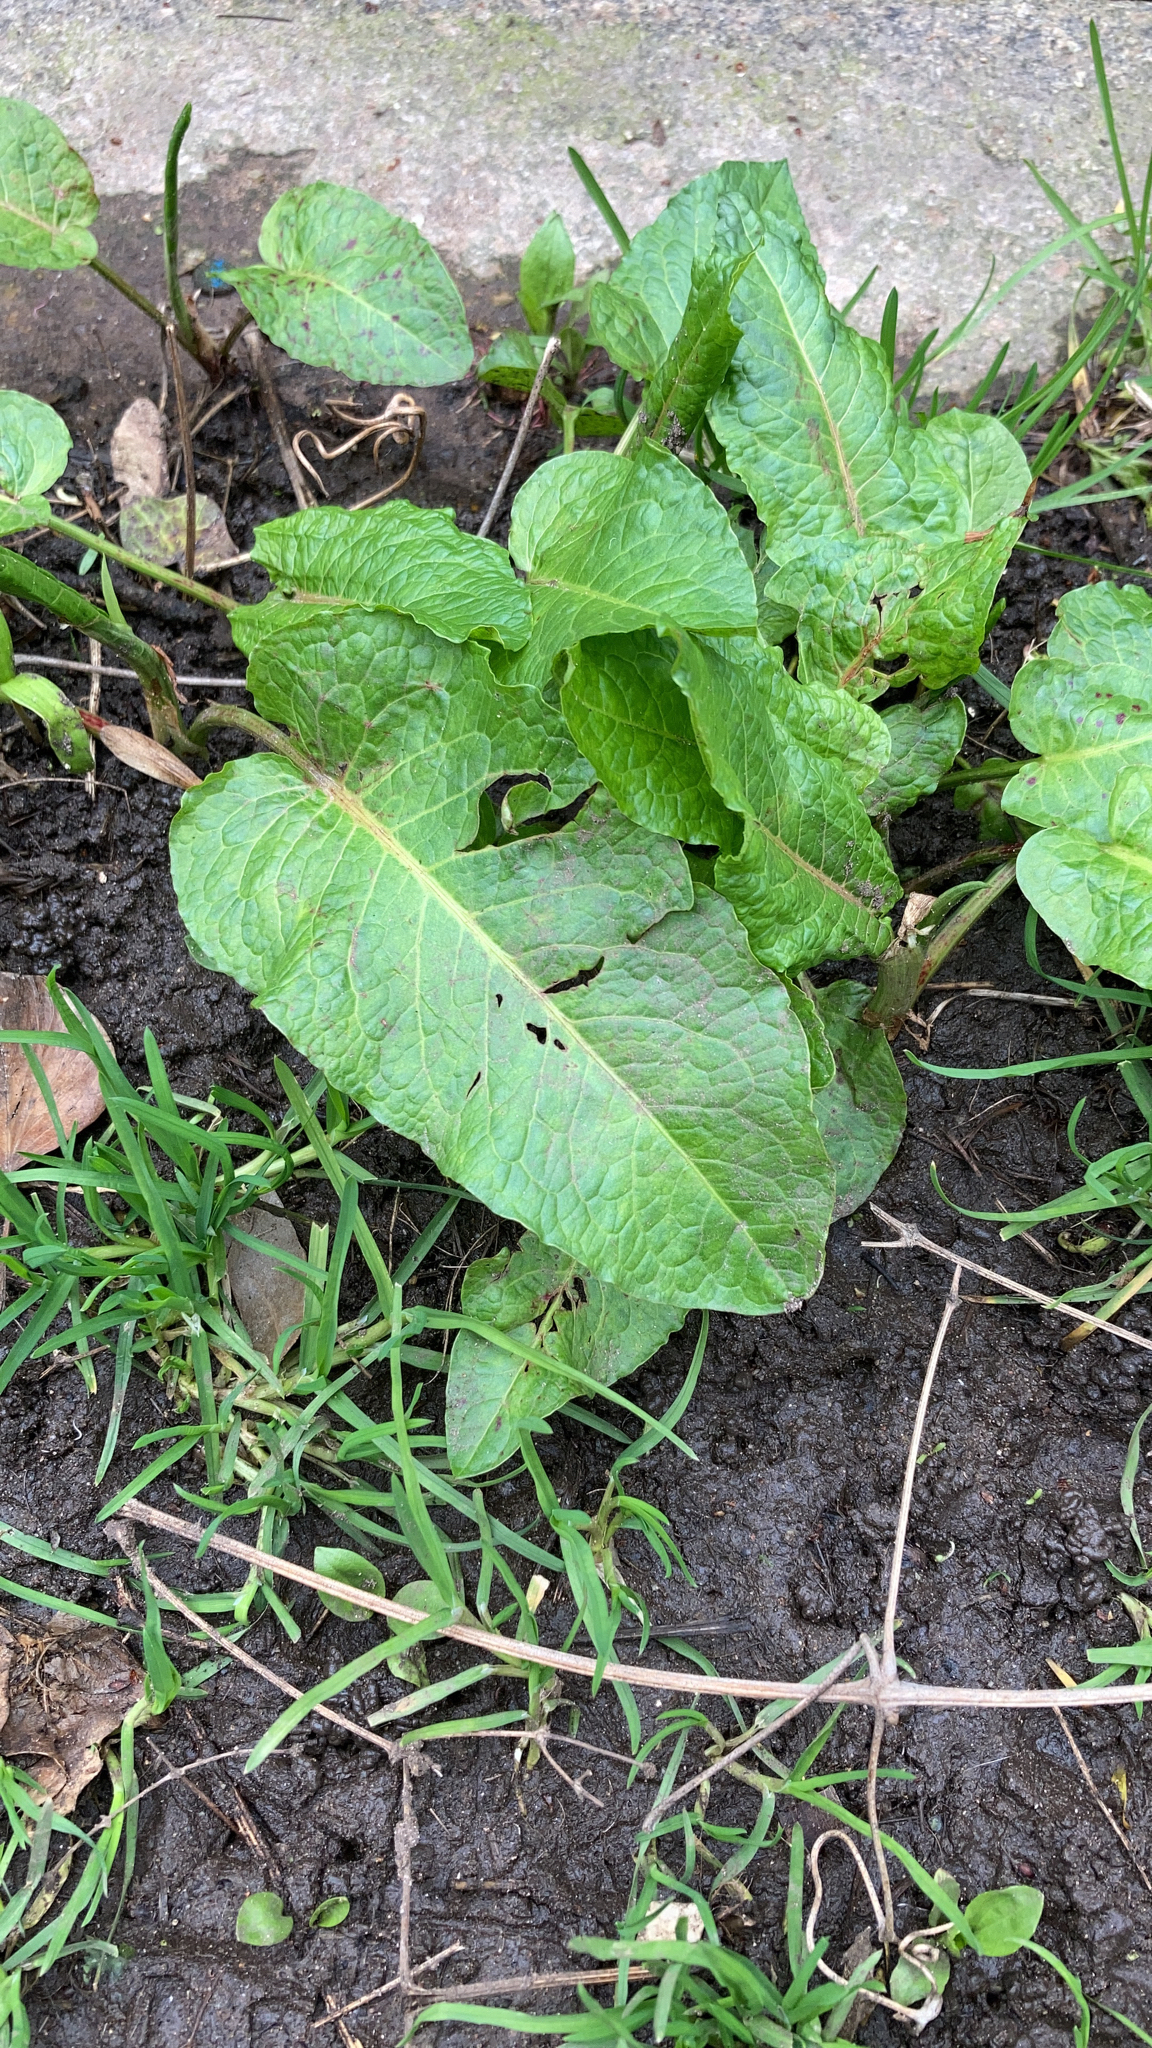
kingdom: Plantae
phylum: Tracheophyta
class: Magnoliopsida
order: Caryophyllales
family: Polygonaceae
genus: Rumex
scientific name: Rumex obtusifolius
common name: Bitter dock
